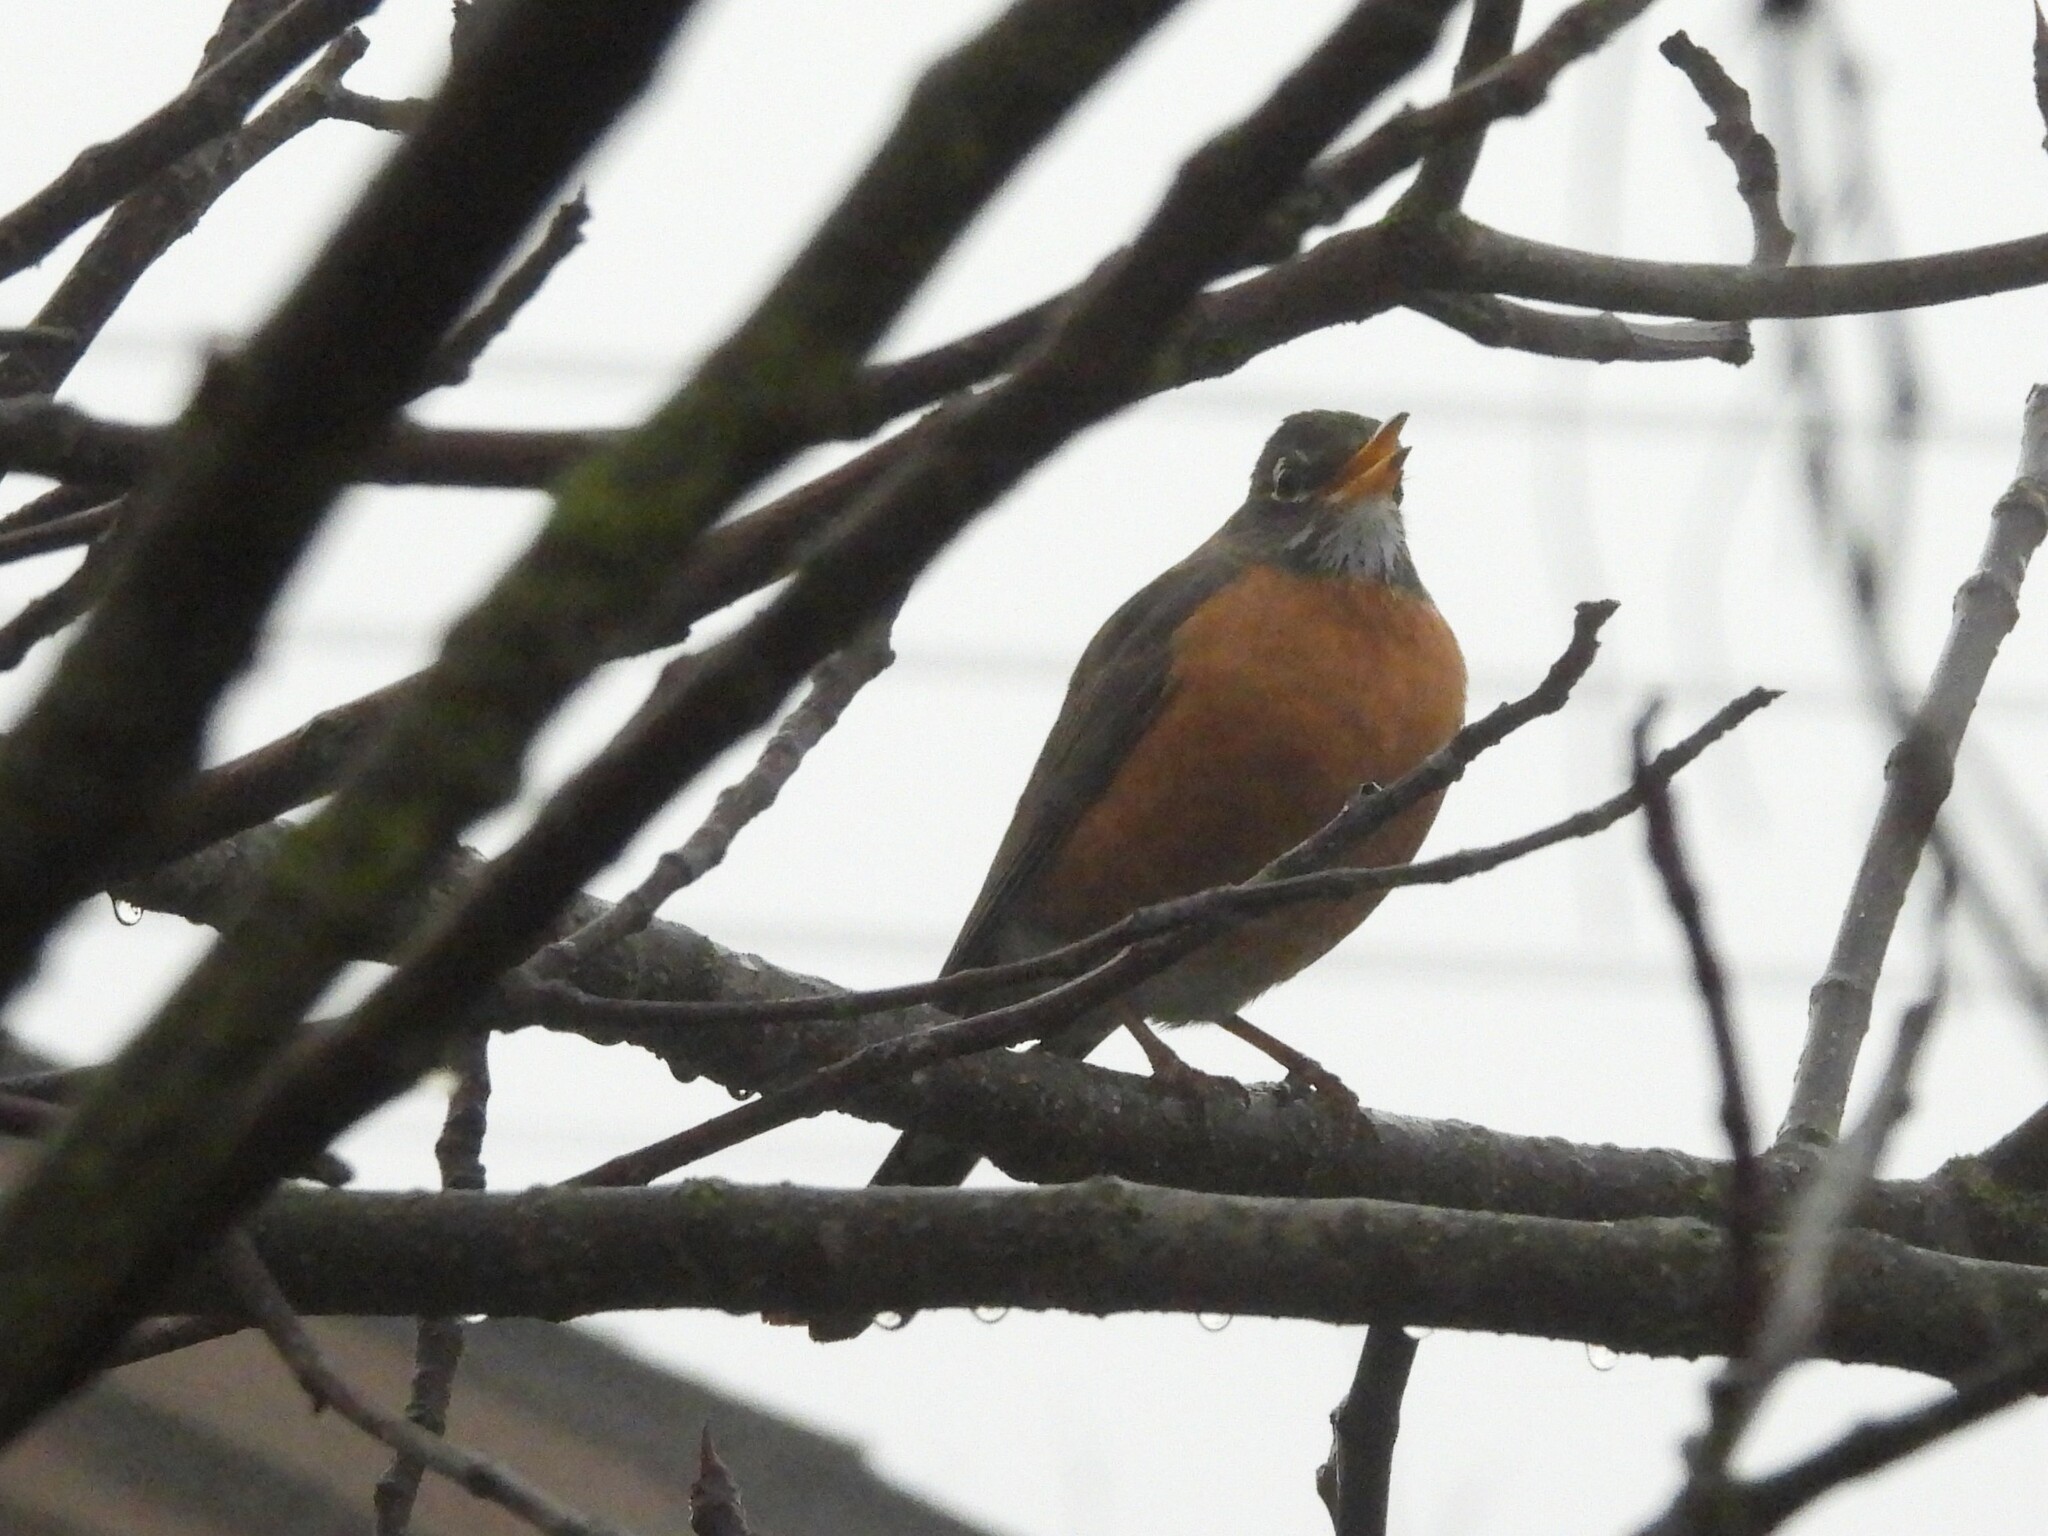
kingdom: Animalia
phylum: Chordata
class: Aves
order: Passeriformes
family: Turdidae
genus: Turdus
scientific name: Turdus migratorius
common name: American robin
